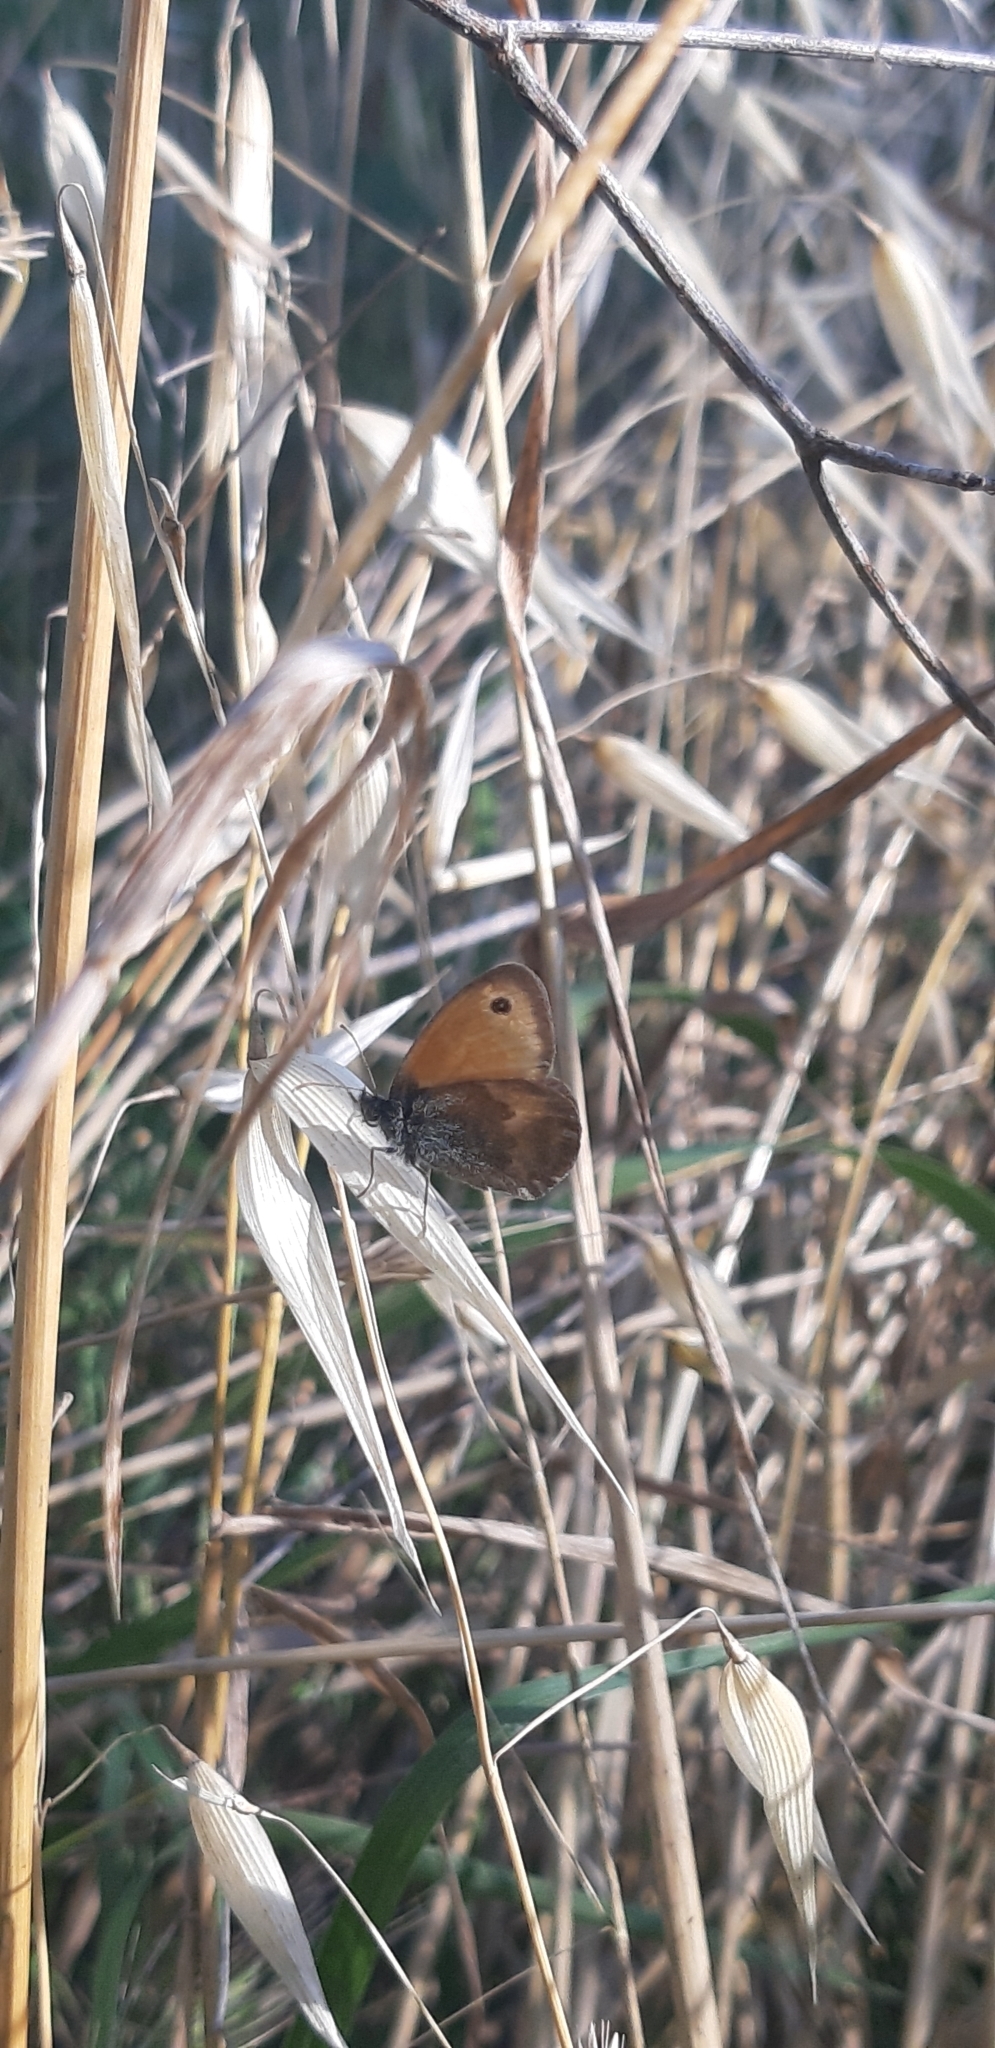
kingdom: Animalia
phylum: Arthropoda
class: Insecta
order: Lepidoptera
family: Nymphalidae
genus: Coenonympha
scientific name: Coenonympha pamphilus
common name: Small heath
